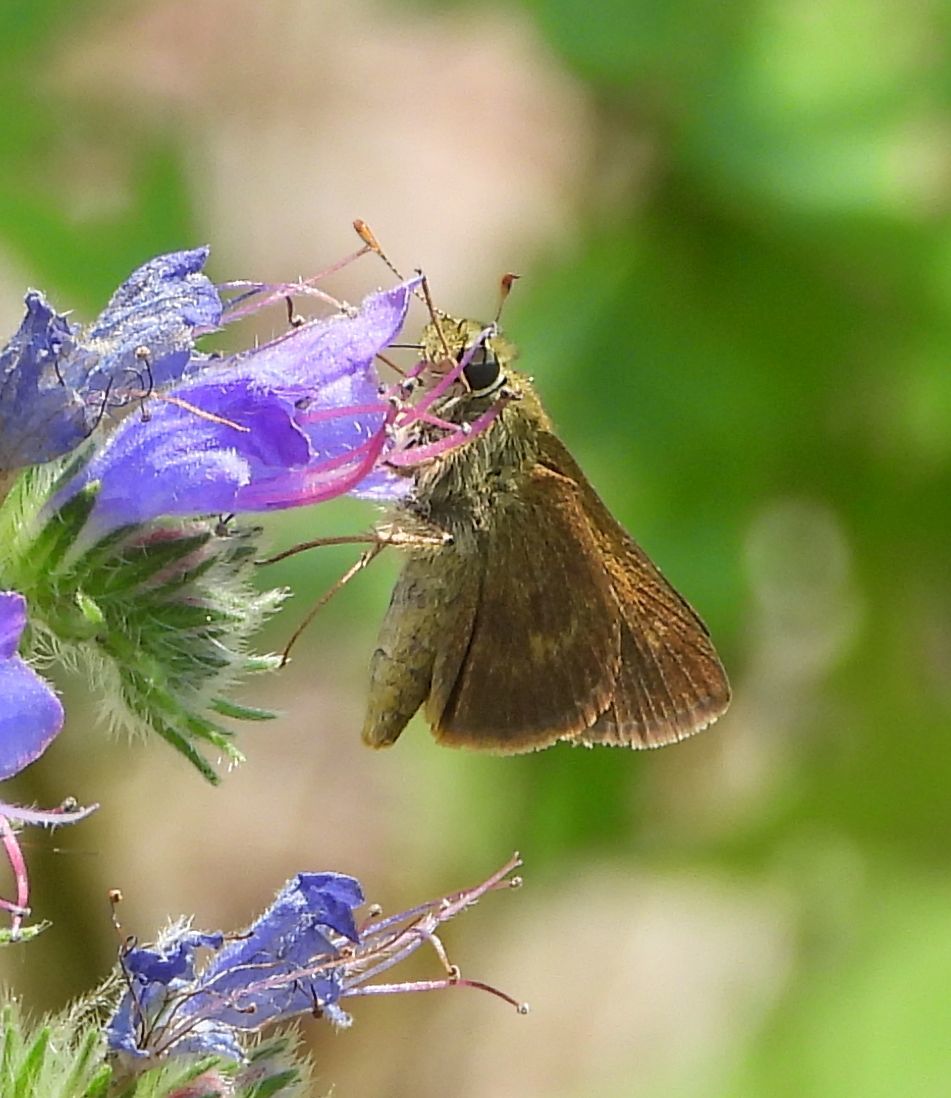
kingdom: Animalia
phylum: Arthropoda
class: Insecta
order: Lepidoptera
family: Hesperiidae
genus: Polites
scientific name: Polites egeremet
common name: Northern broken-dash
